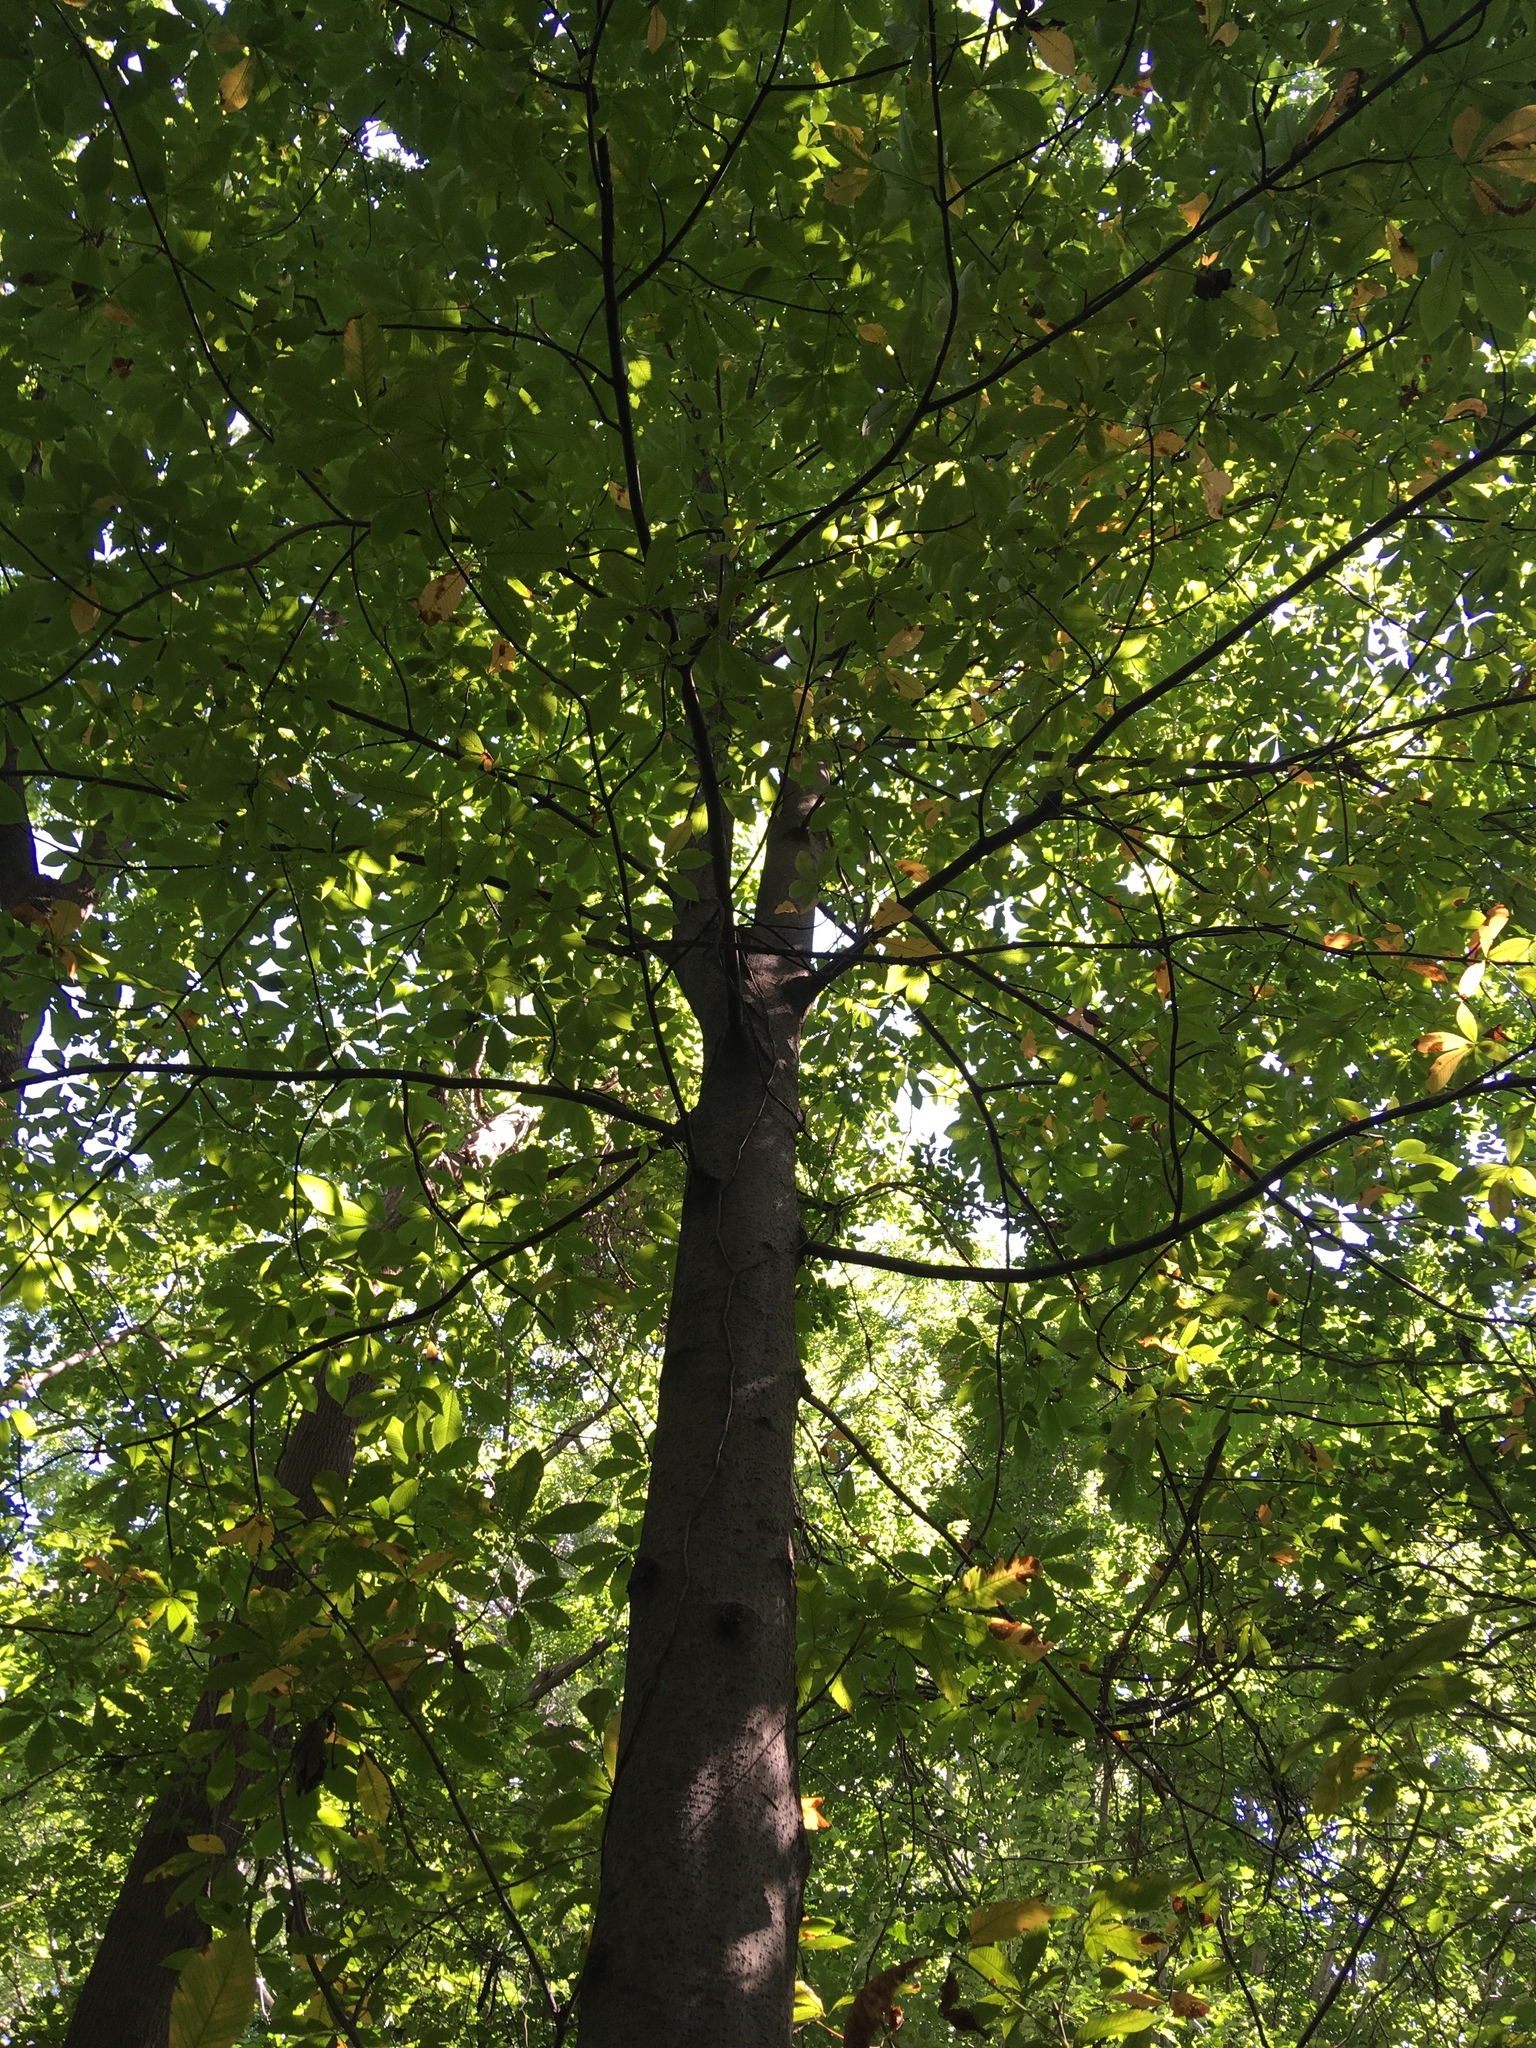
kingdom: Plantae
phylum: Tracheophyta
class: Magnoliopsida
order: Sapindales
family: Sapindaceae
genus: Aesculus
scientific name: Aesculus flava
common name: Yellow buckeye
